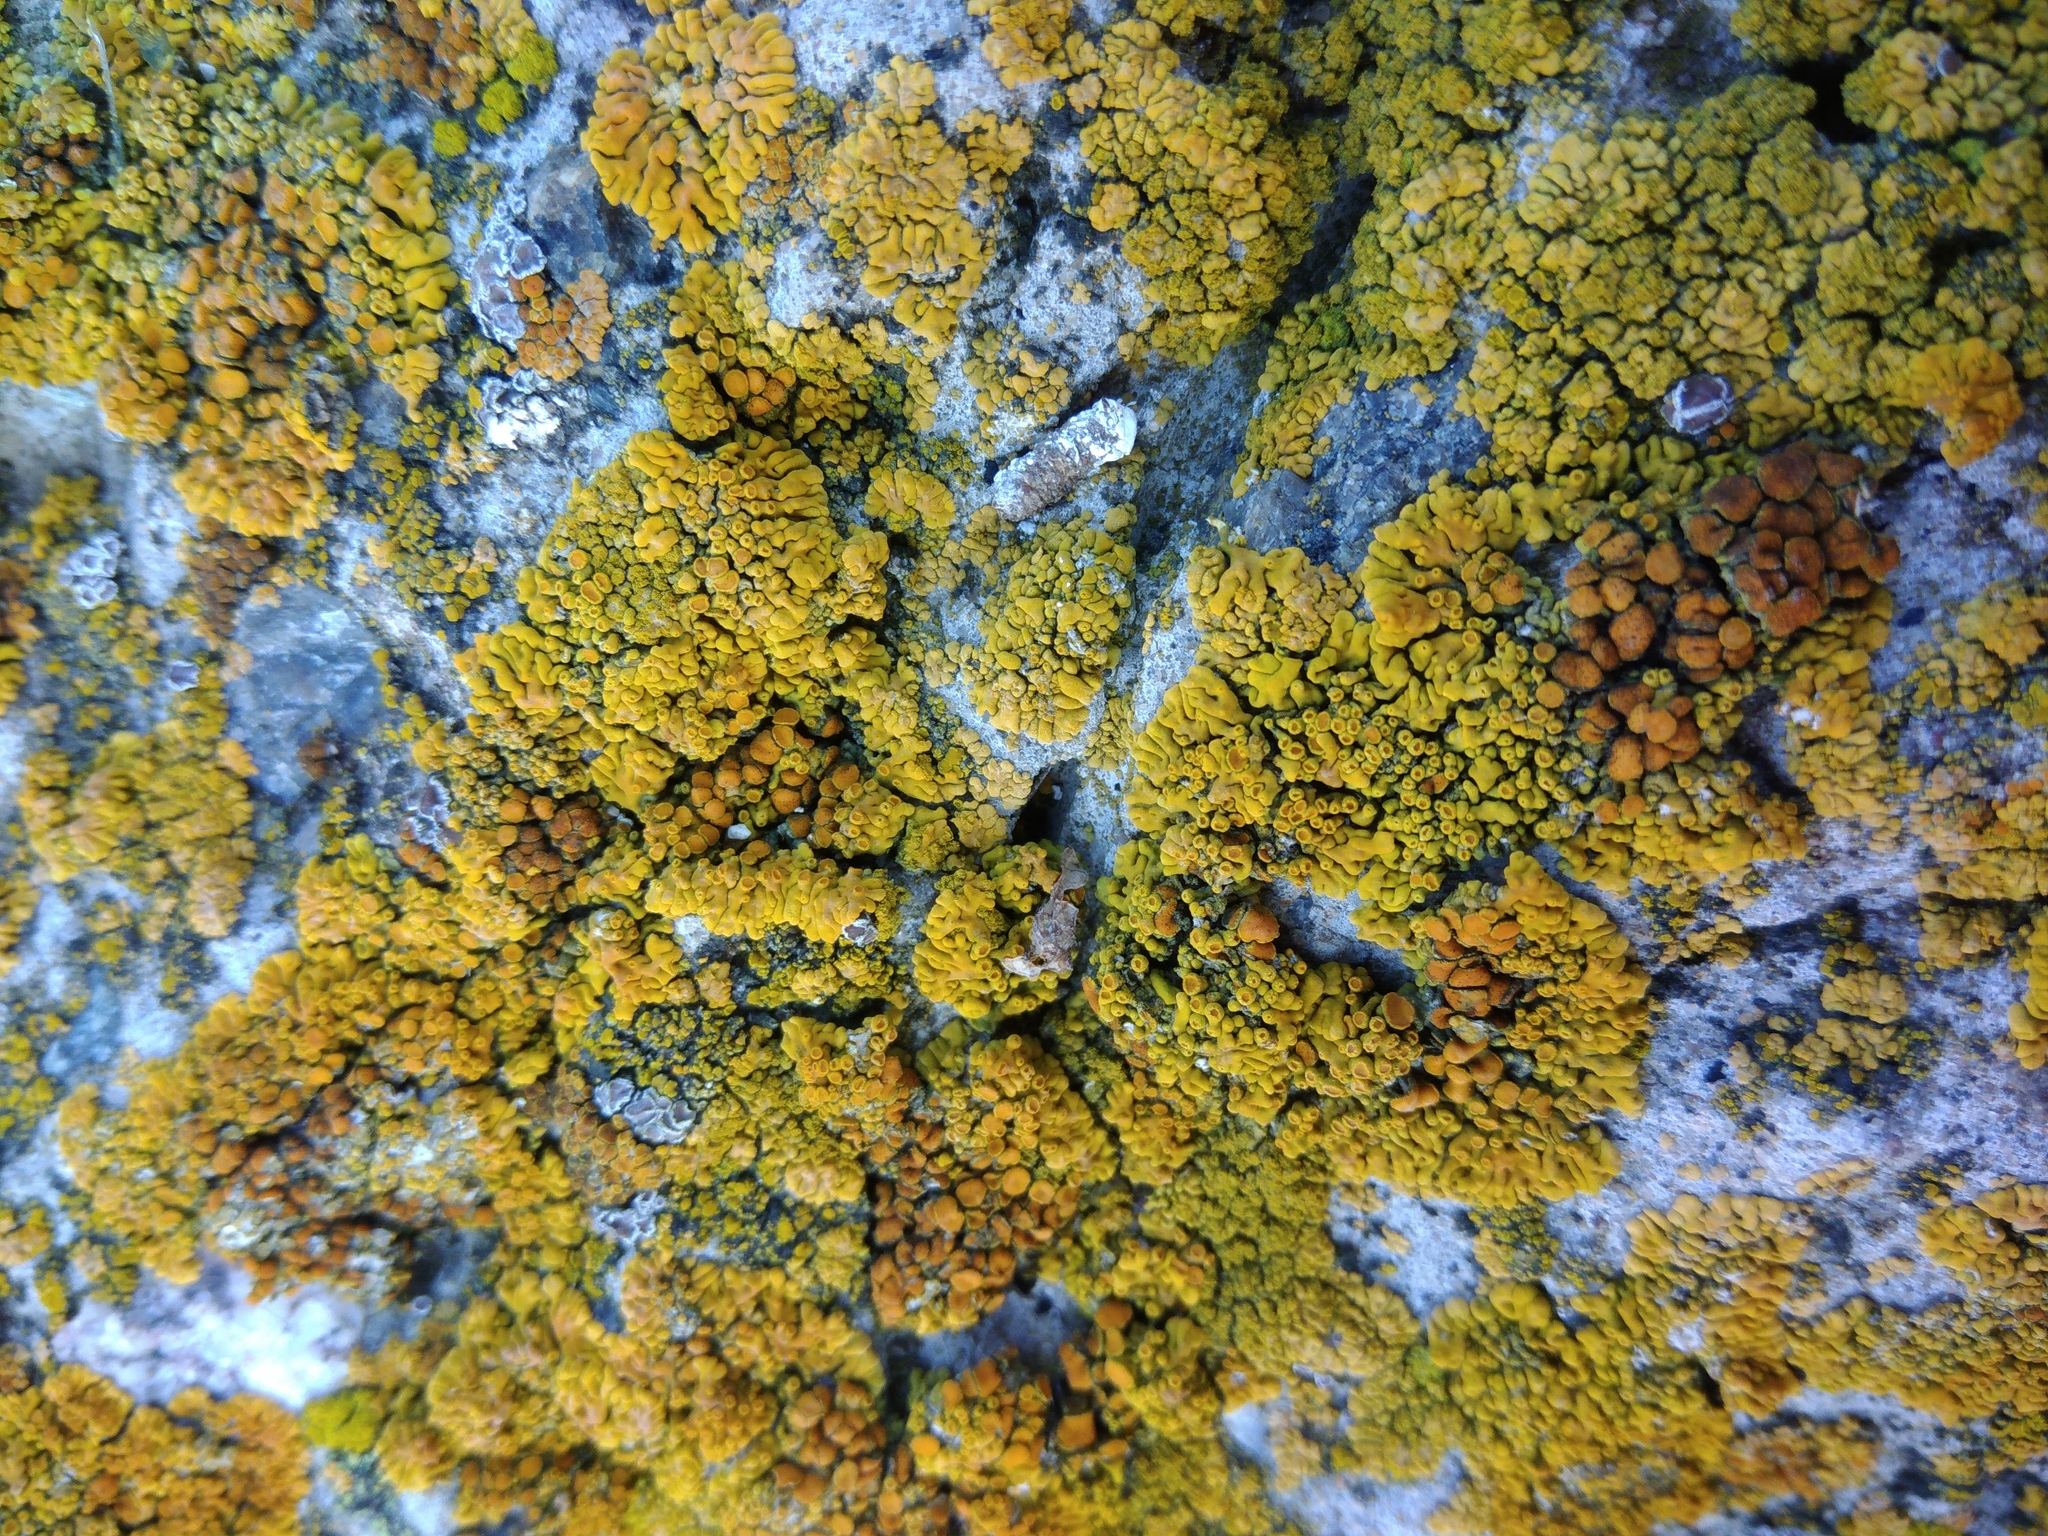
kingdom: Fungi
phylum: Ascomycota
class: Lecanoromycetes
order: Teloschistales
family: Teloschistaceae
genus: Calogaya
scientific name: Calogaya saxicola
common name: Rock jewel lichen
